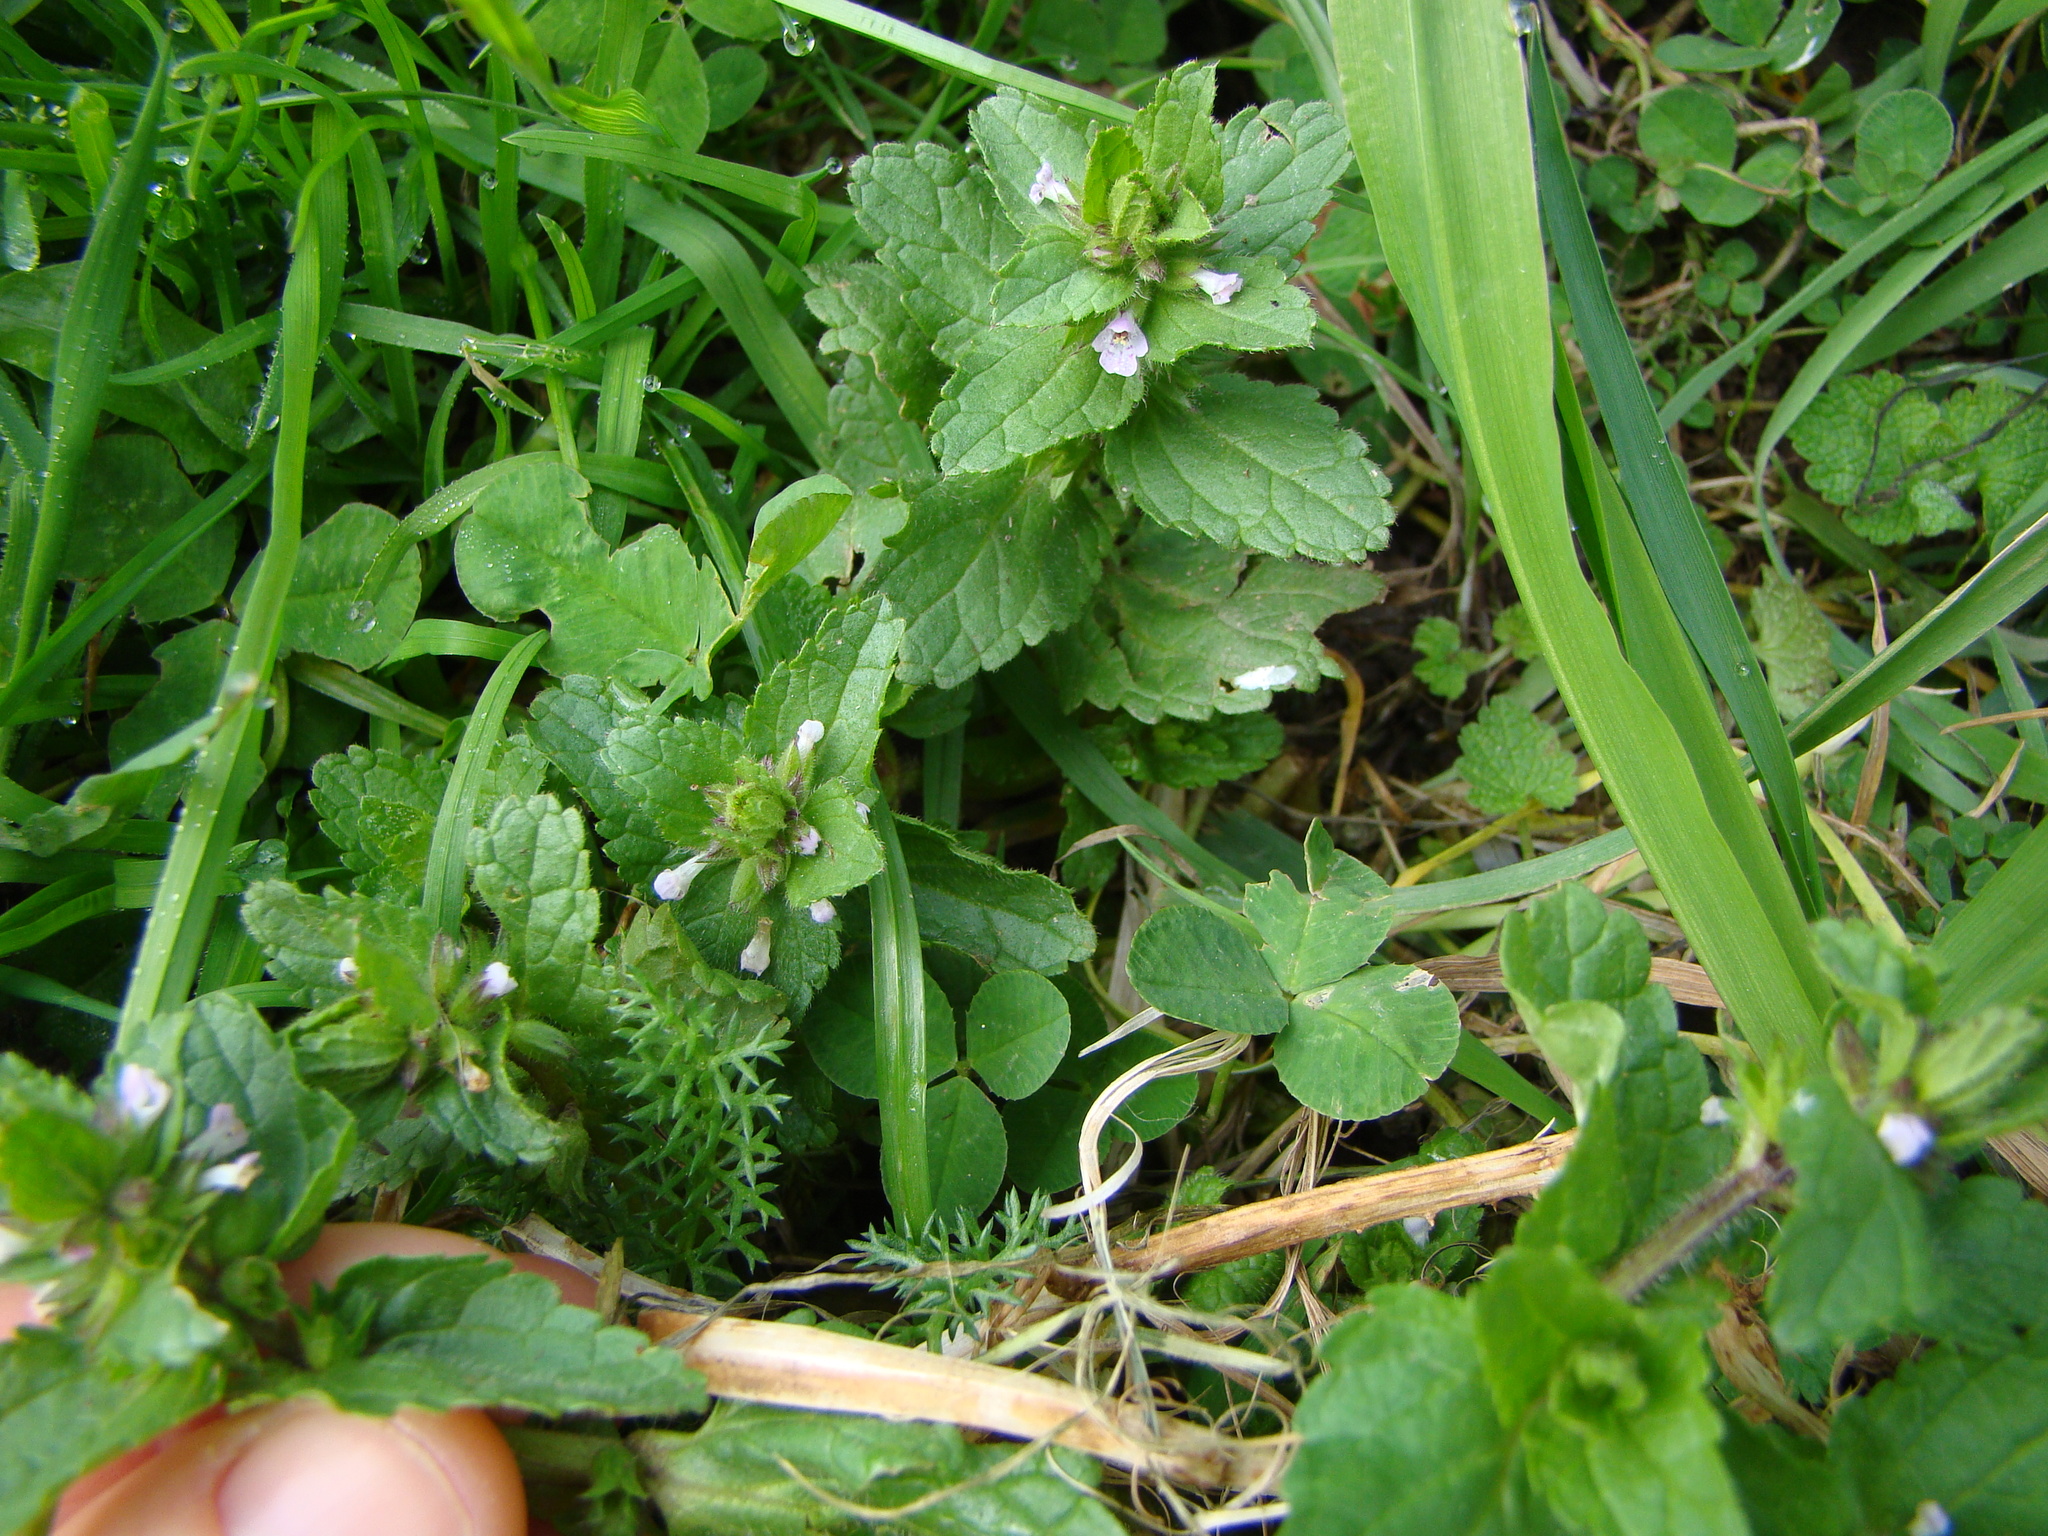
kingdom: Plantae
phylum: Tracheophyta
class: Magnoliopsida
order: Lamiales
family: Lamiaceae
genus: Stachys
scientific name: Stachys arvensis
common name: Field woundwort
